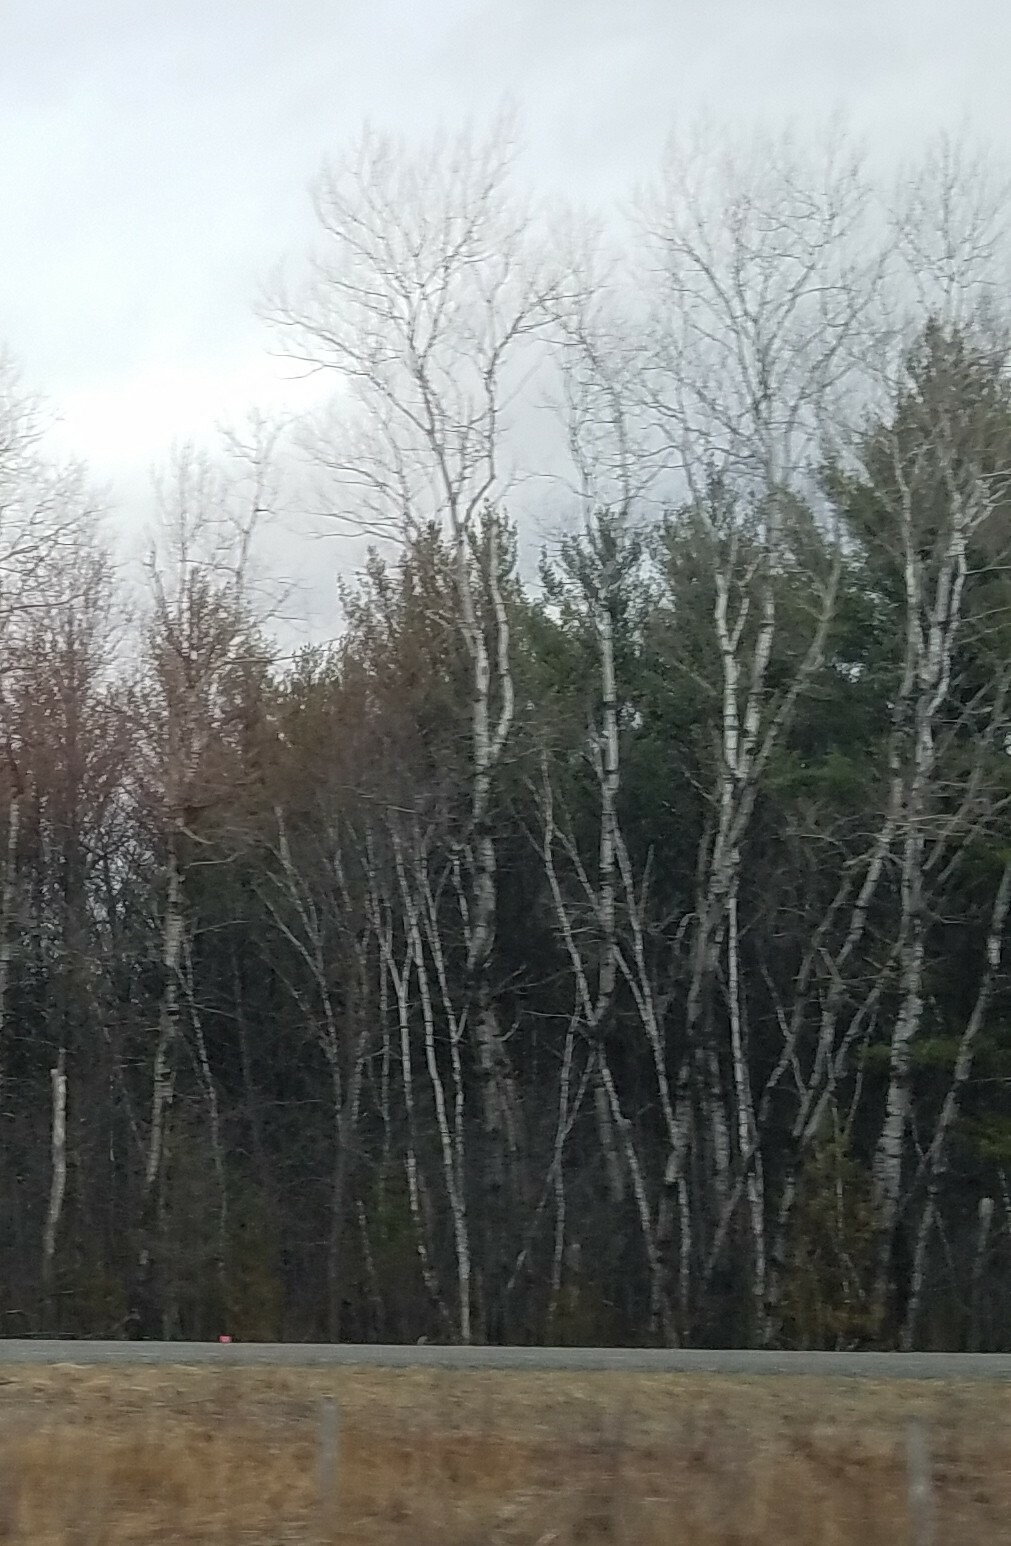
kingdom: Plantae
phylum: Tracheophyta
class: Magnoliopsida
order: Malpighiales
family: Salicaceae
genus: Populus
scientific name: Populus tremuloides
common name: Quaking aspen
